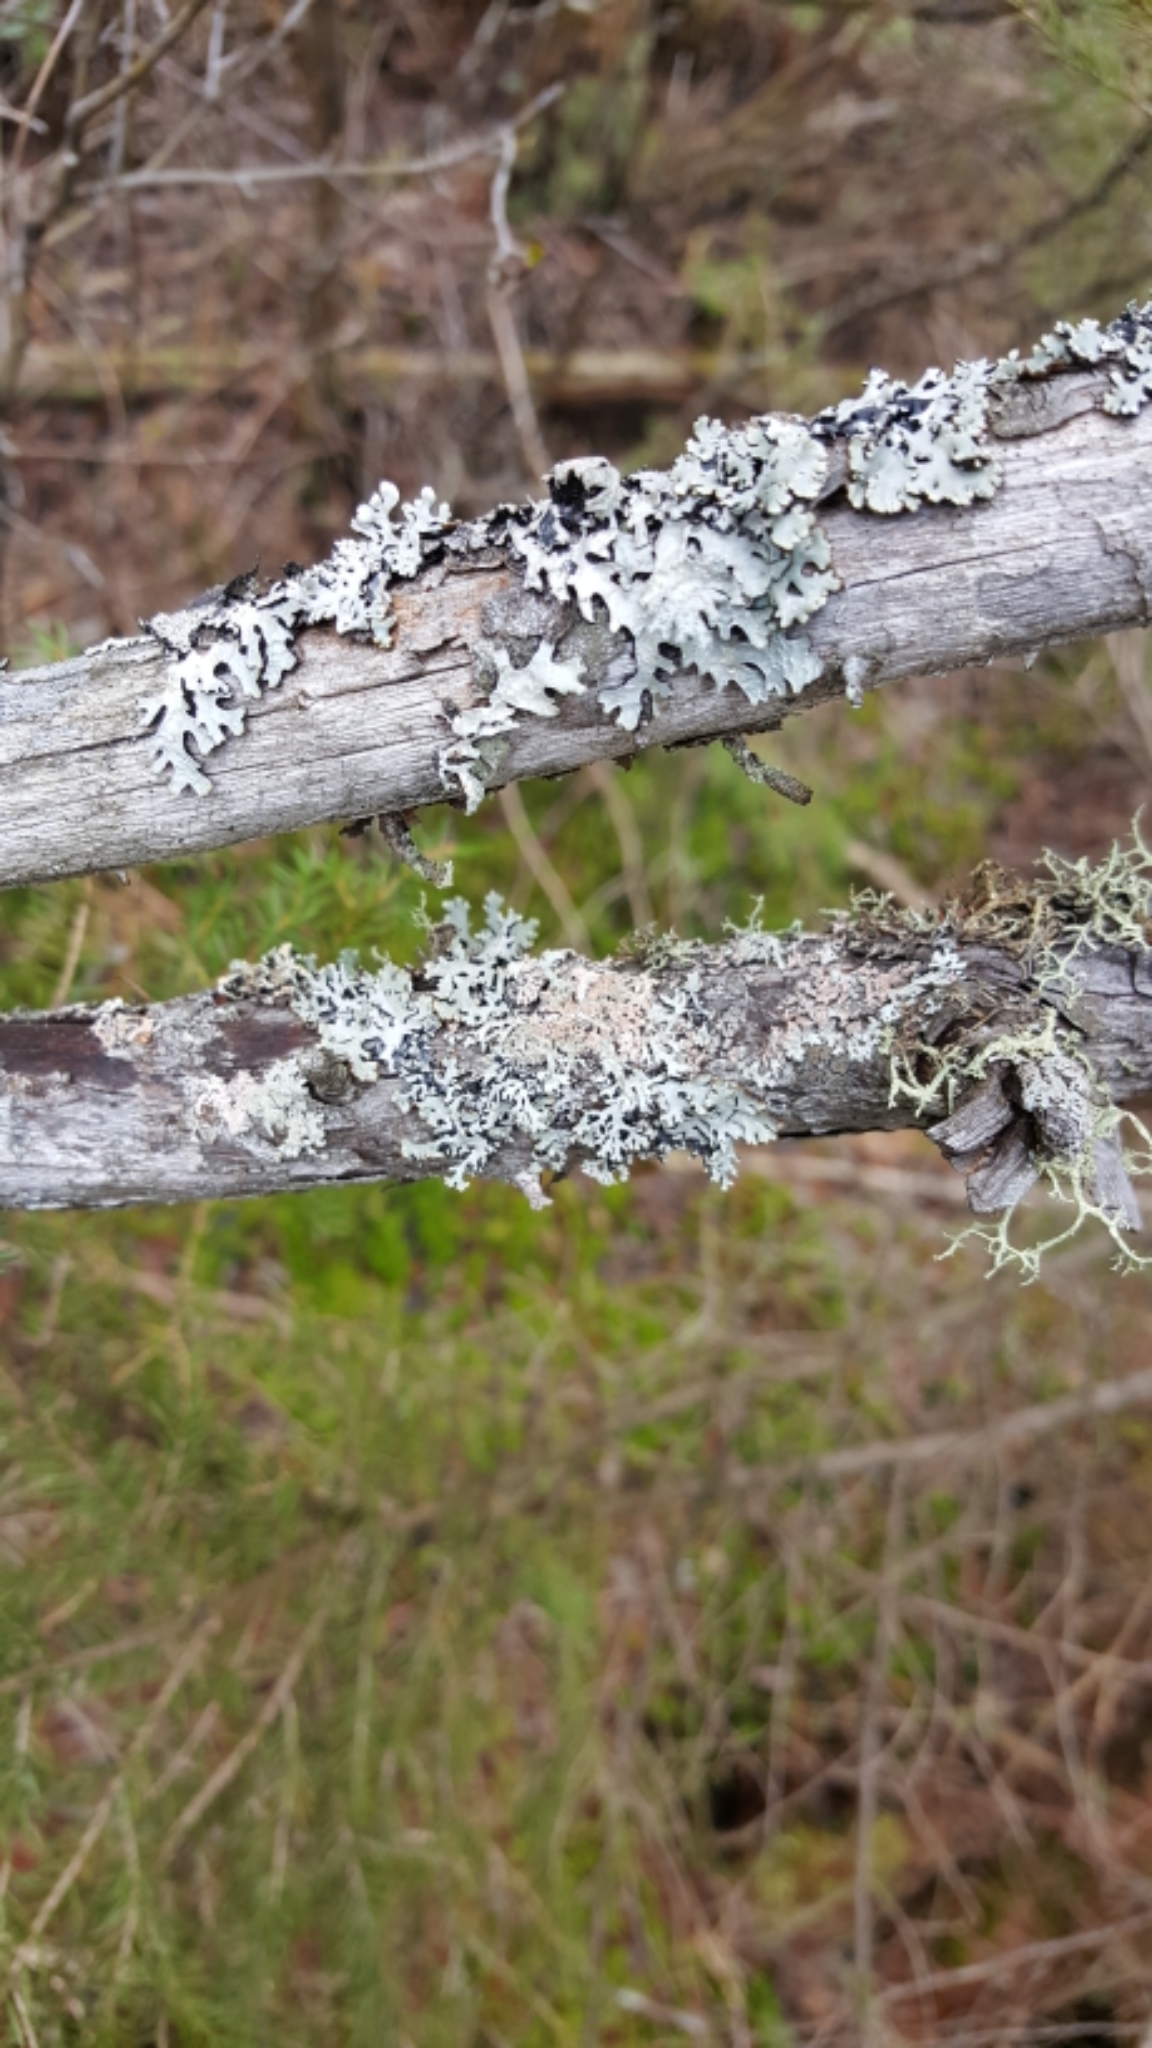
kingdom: Fungi
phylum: Ascomycota
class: Lecanoromycetes
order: Lecanorales
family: Parmeliaceae
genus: Hypogymnia
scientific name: Hypogymnia physodes
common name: Dark crottle
